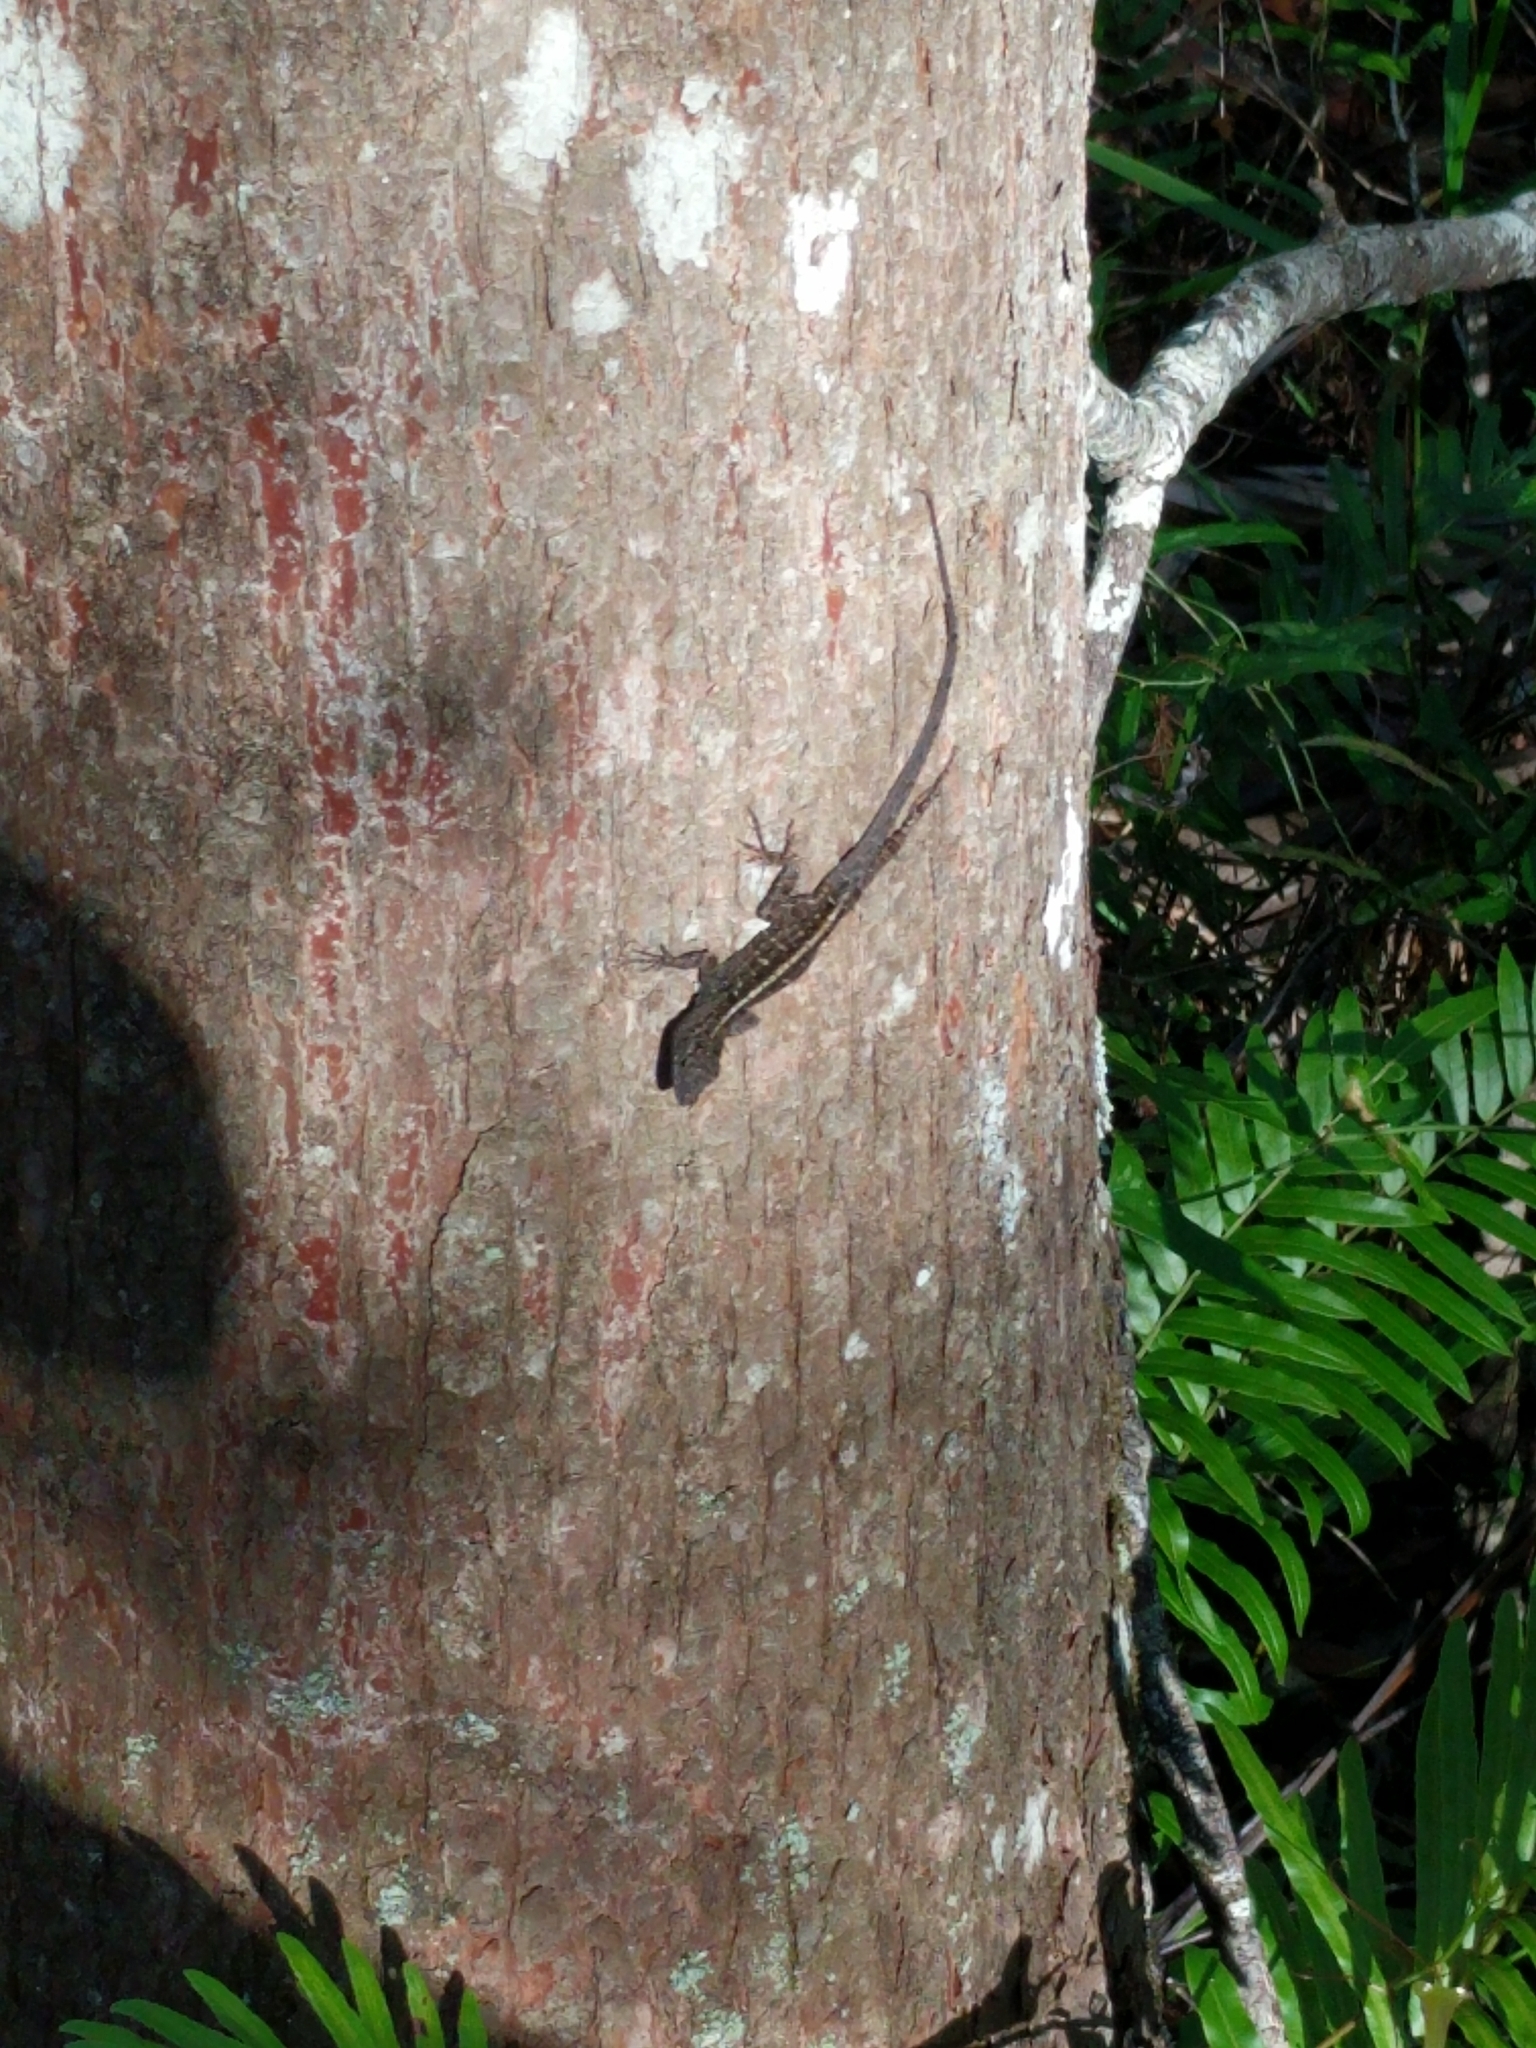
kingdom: Animalia
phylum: Chordata
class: Squamata
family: Dactyloidae
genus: Anolis
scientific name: Anolis sagrei
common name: Brown anole
